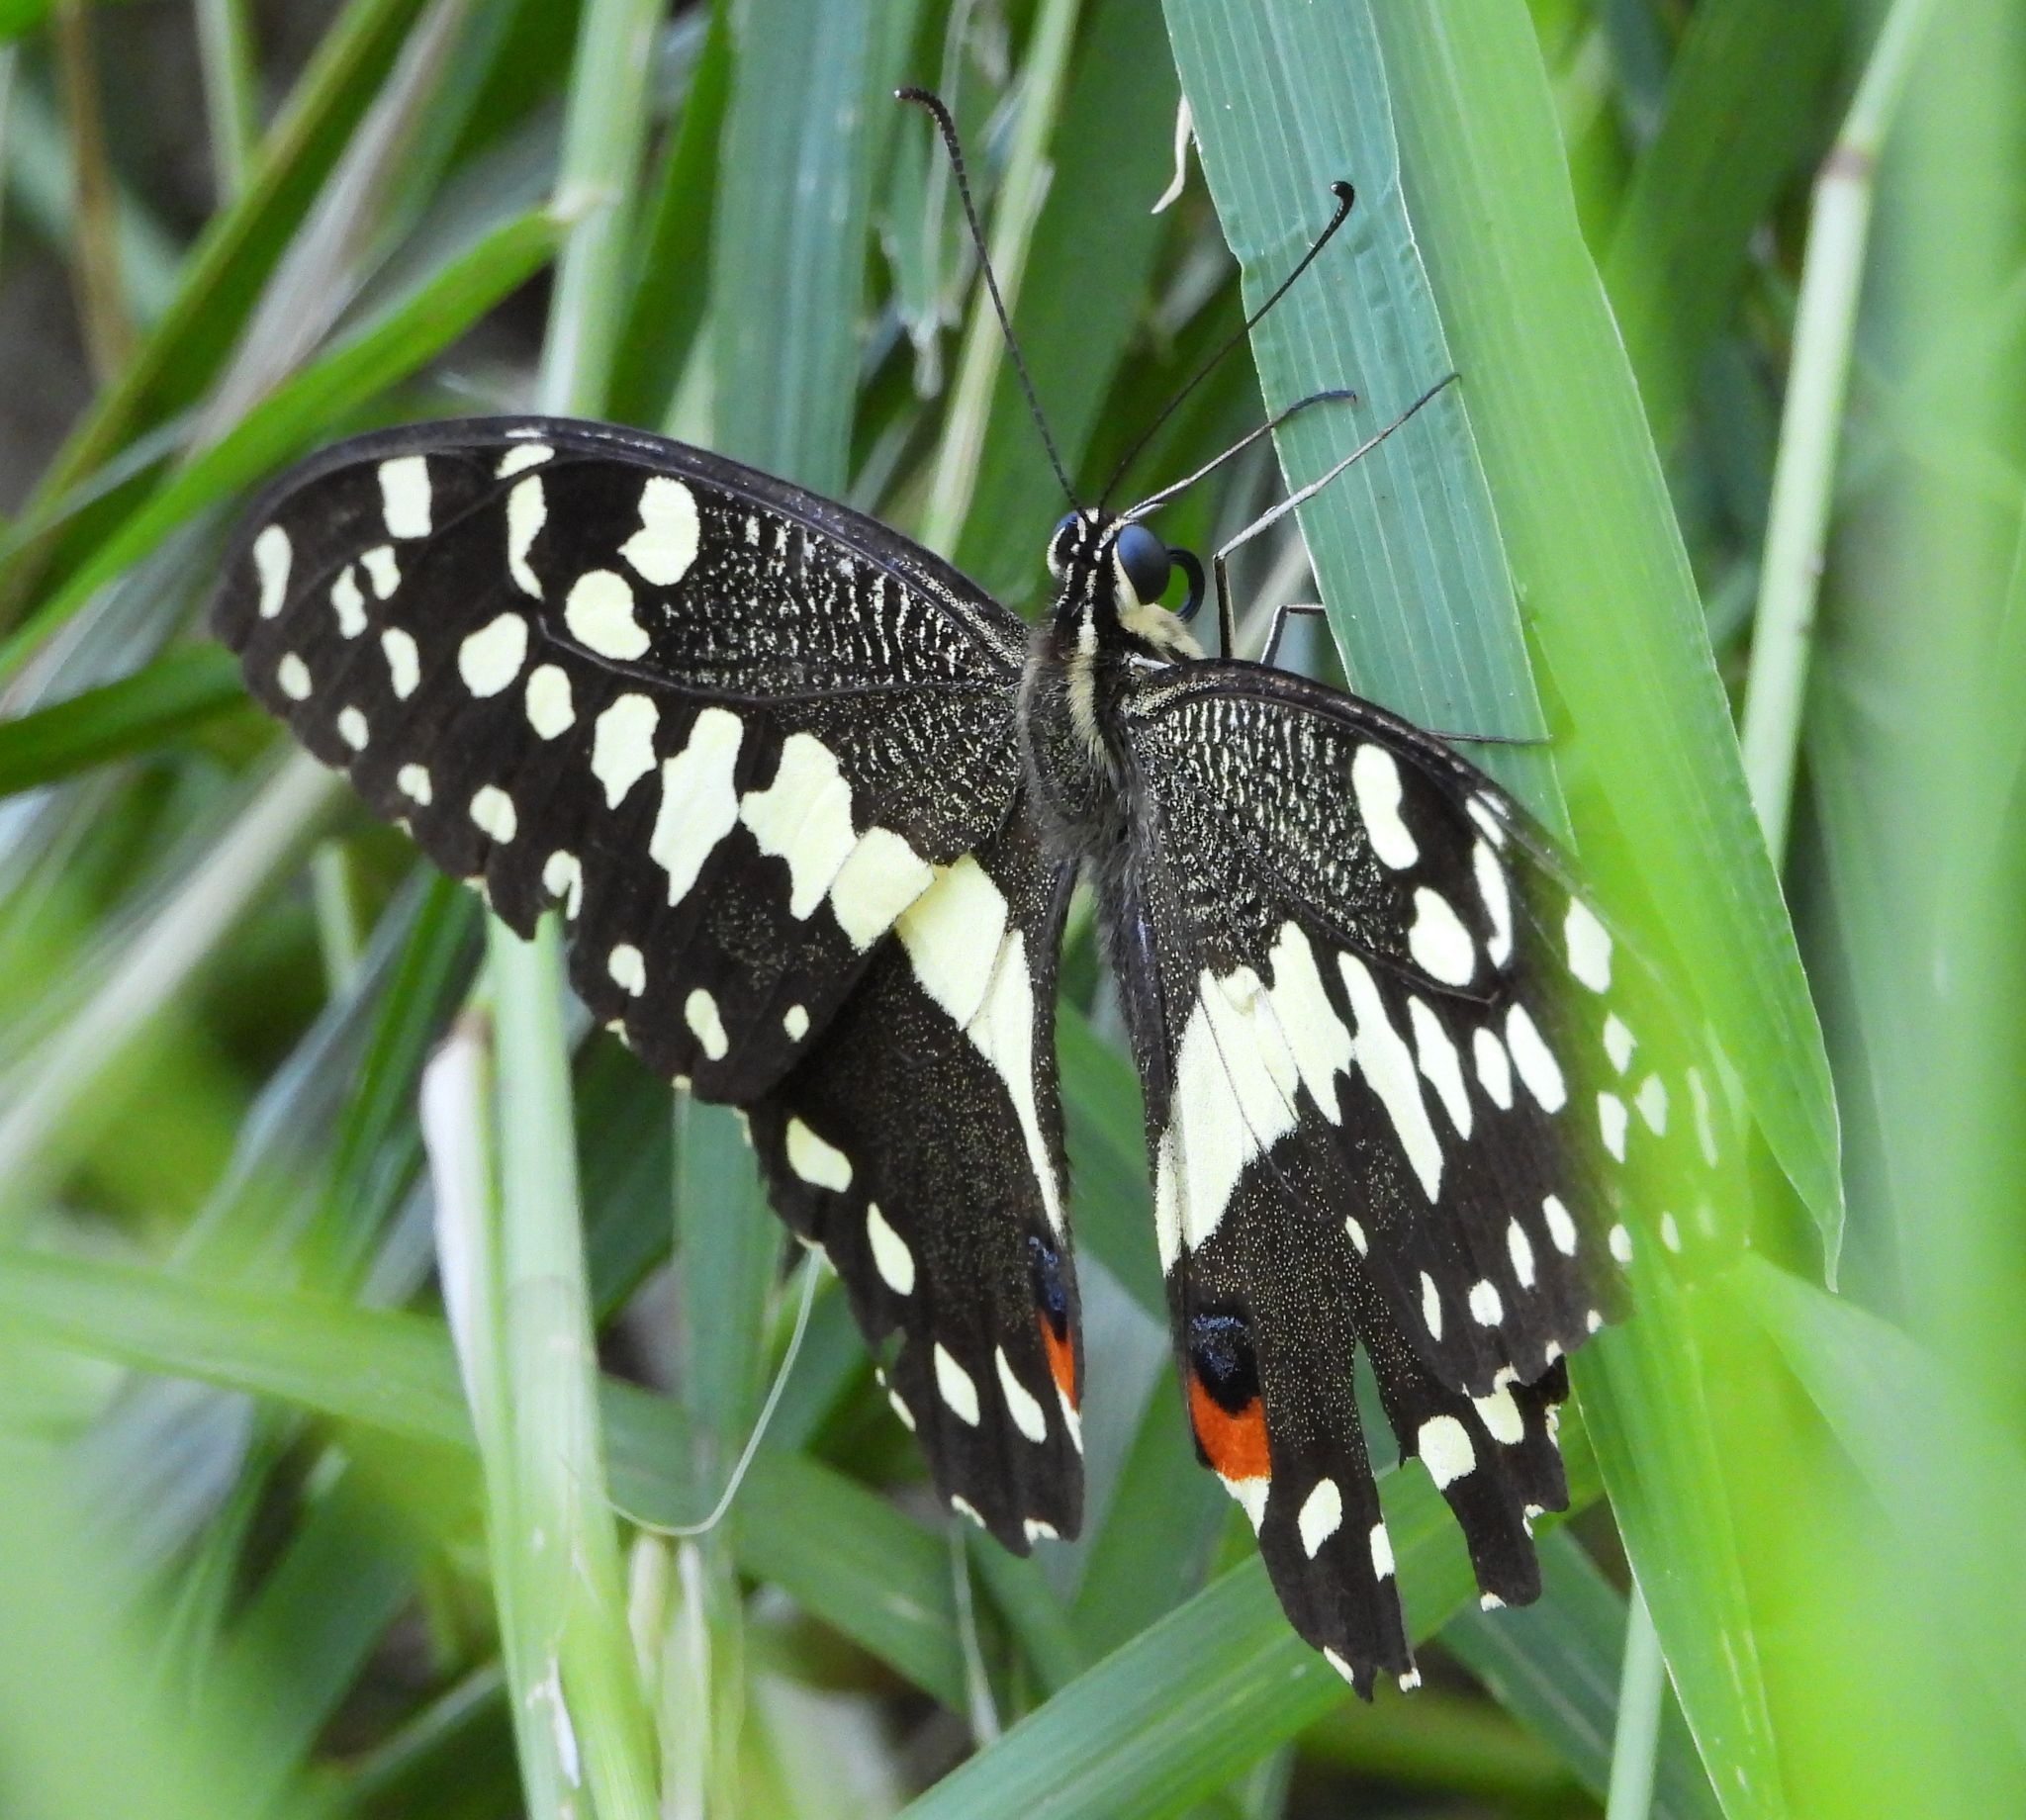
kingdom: Animalia
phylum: Arthropoda
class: Insecta
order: Lepidoptera
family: Papilionidae
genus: Papilio
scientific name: Papilio demodocus
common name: Christmas butterfly
